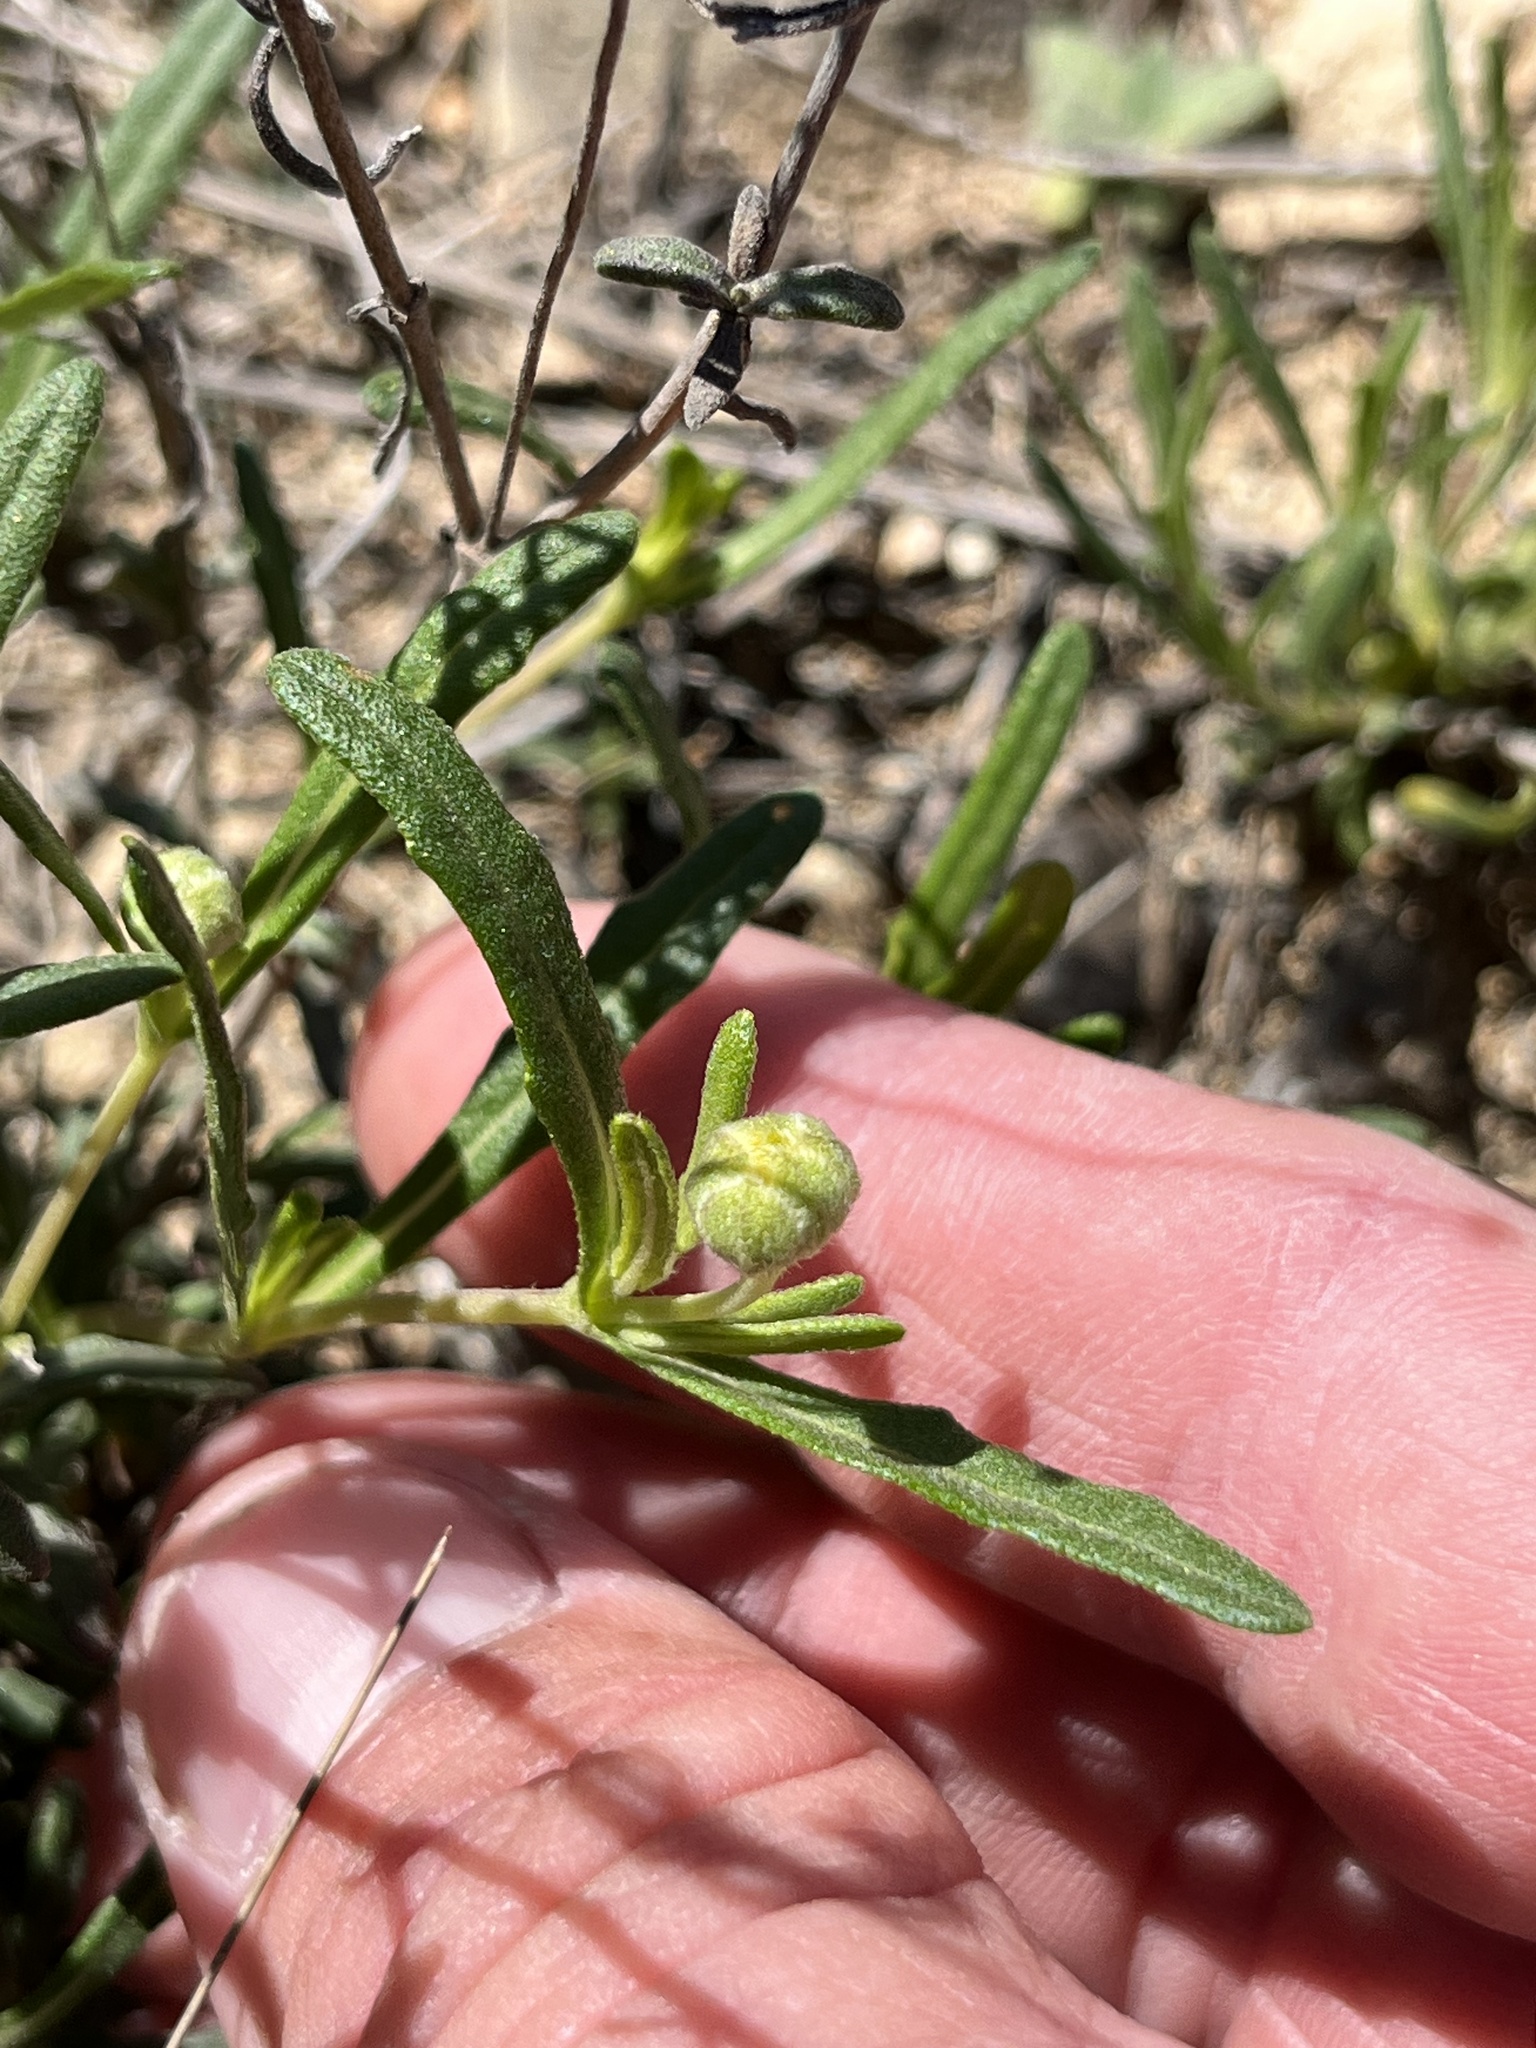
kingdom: Plantae
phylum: Tracheophyta
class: Magnoliopsida
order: Asterales
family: Asteraceae
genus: Melampodium
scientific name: Melampodium leucanthum
